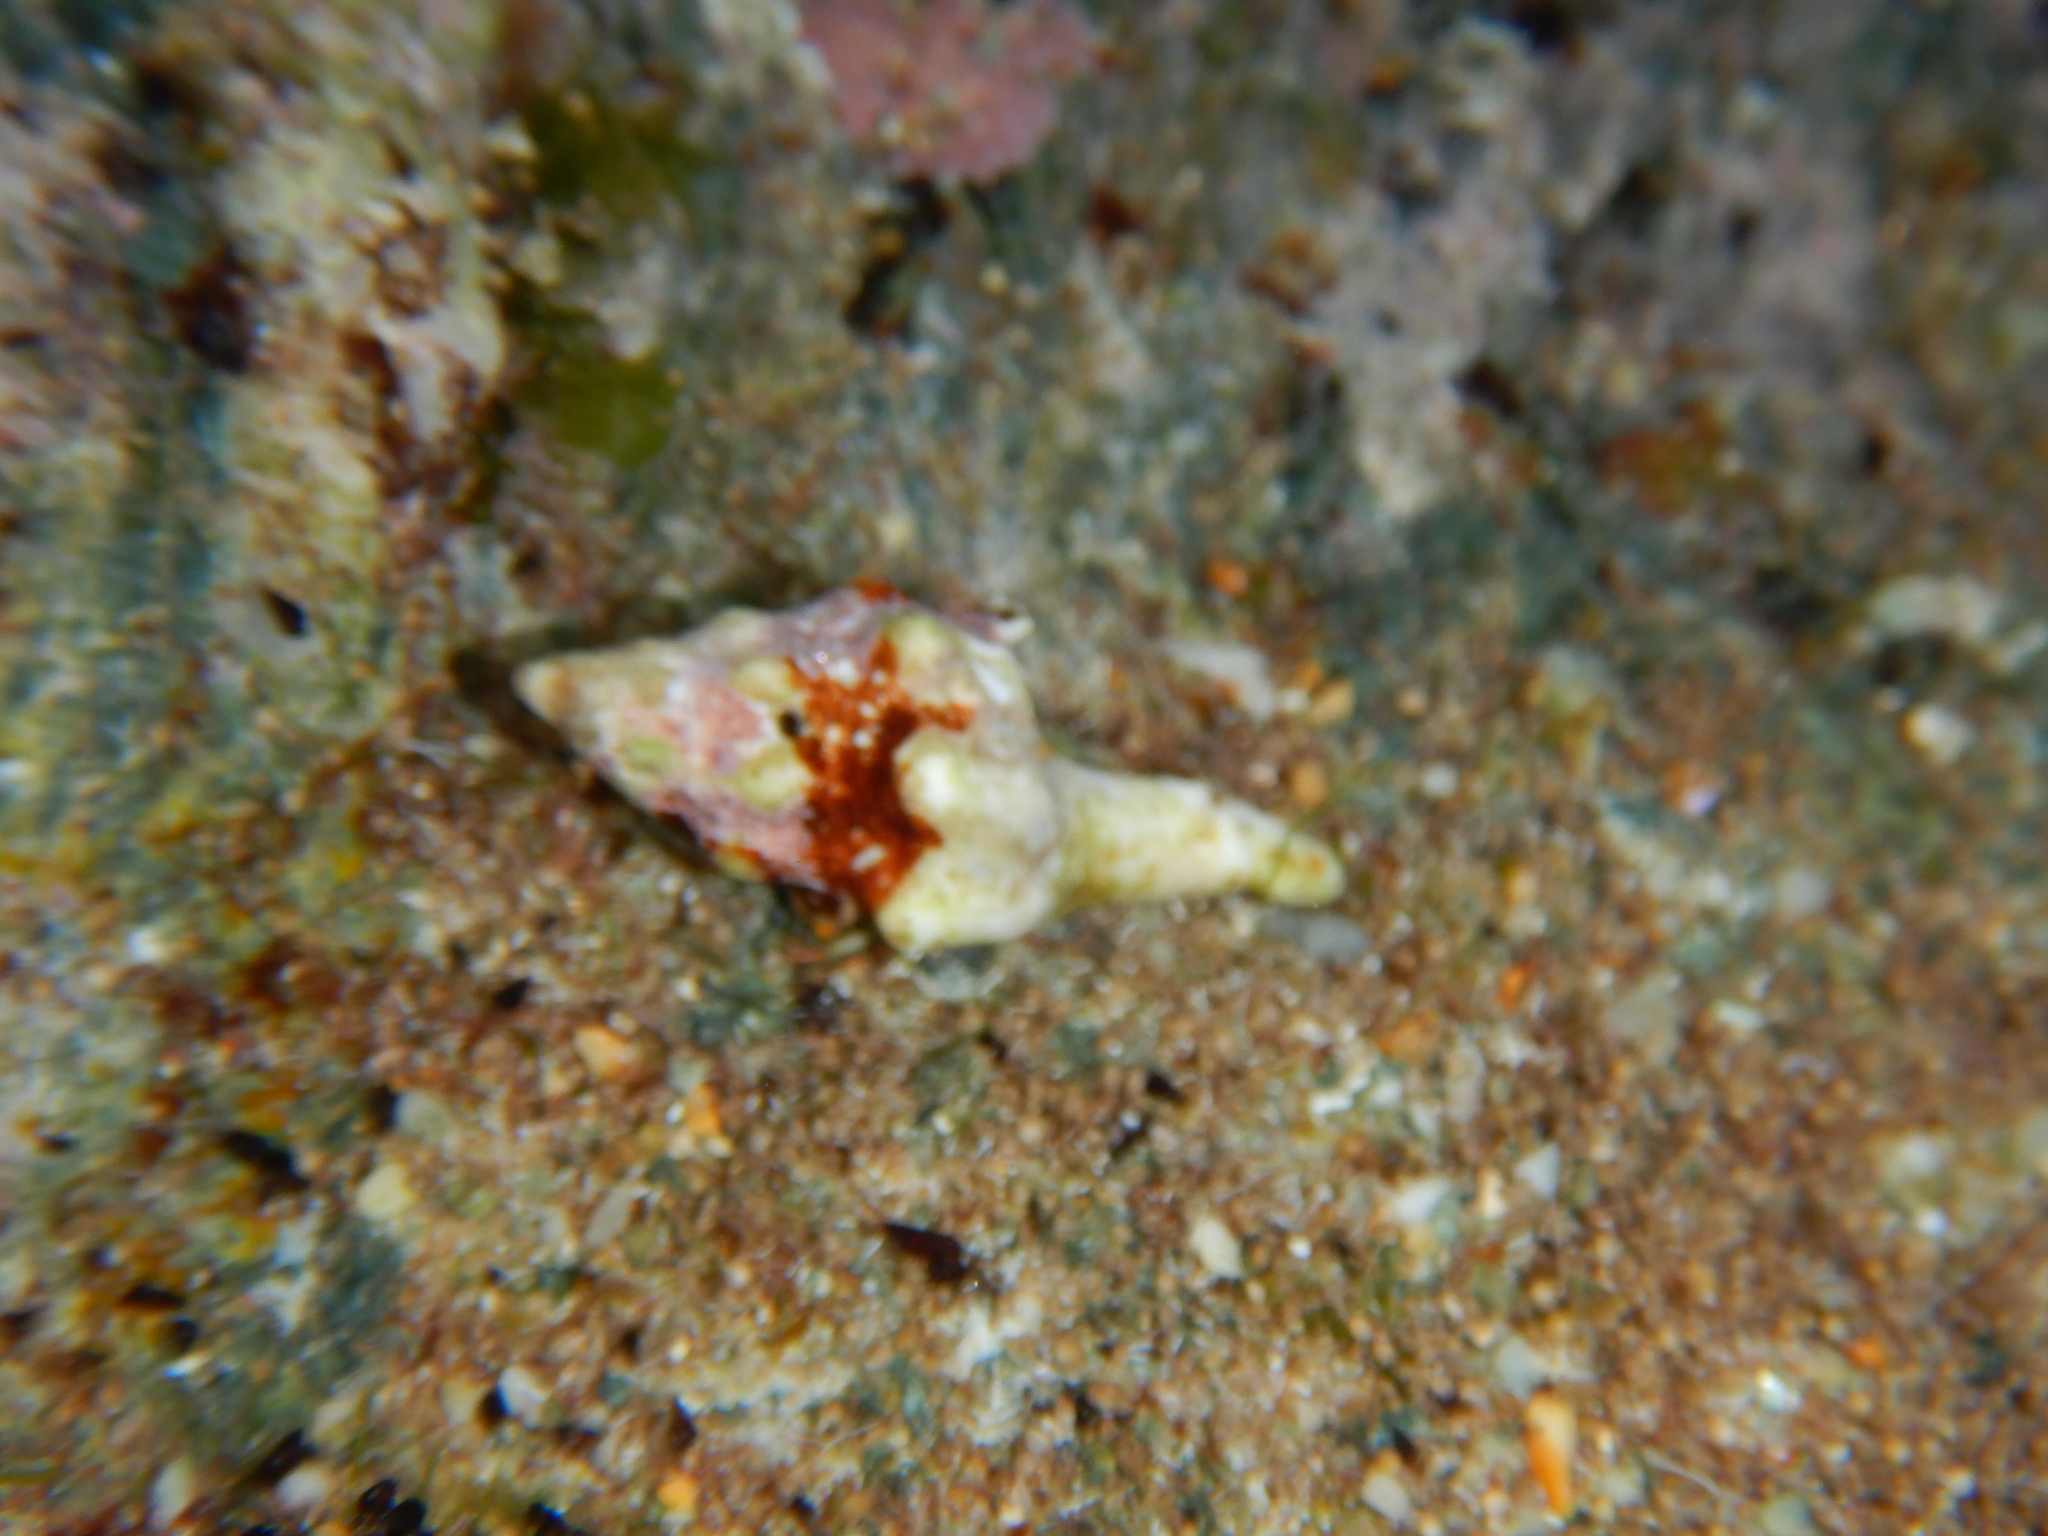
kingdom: Animalia
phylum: Mollusca
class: Gastropoda
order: Neogastropoda
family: Fasciolariidae
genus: Tarantinaea
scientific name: Tarantinaea lignaria
